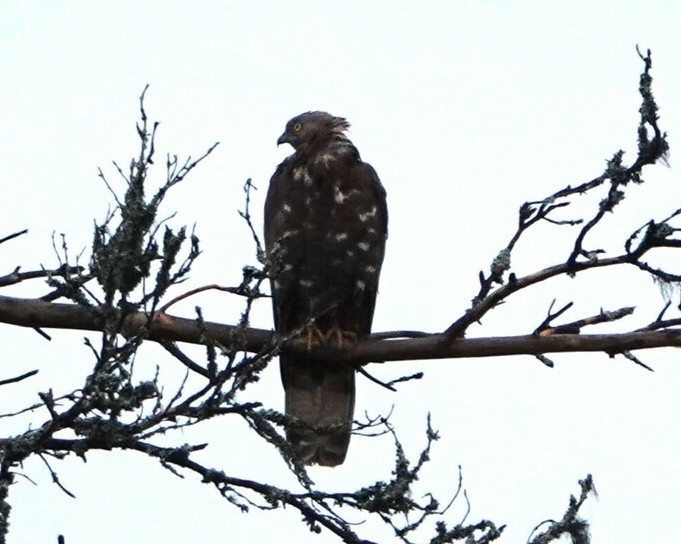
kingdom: Animalia
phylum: Chordata
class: Aves
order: Accipitriformes
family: Accipitridae
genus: Pernis
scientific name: Pernis apivorus
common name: European honey buzzard
